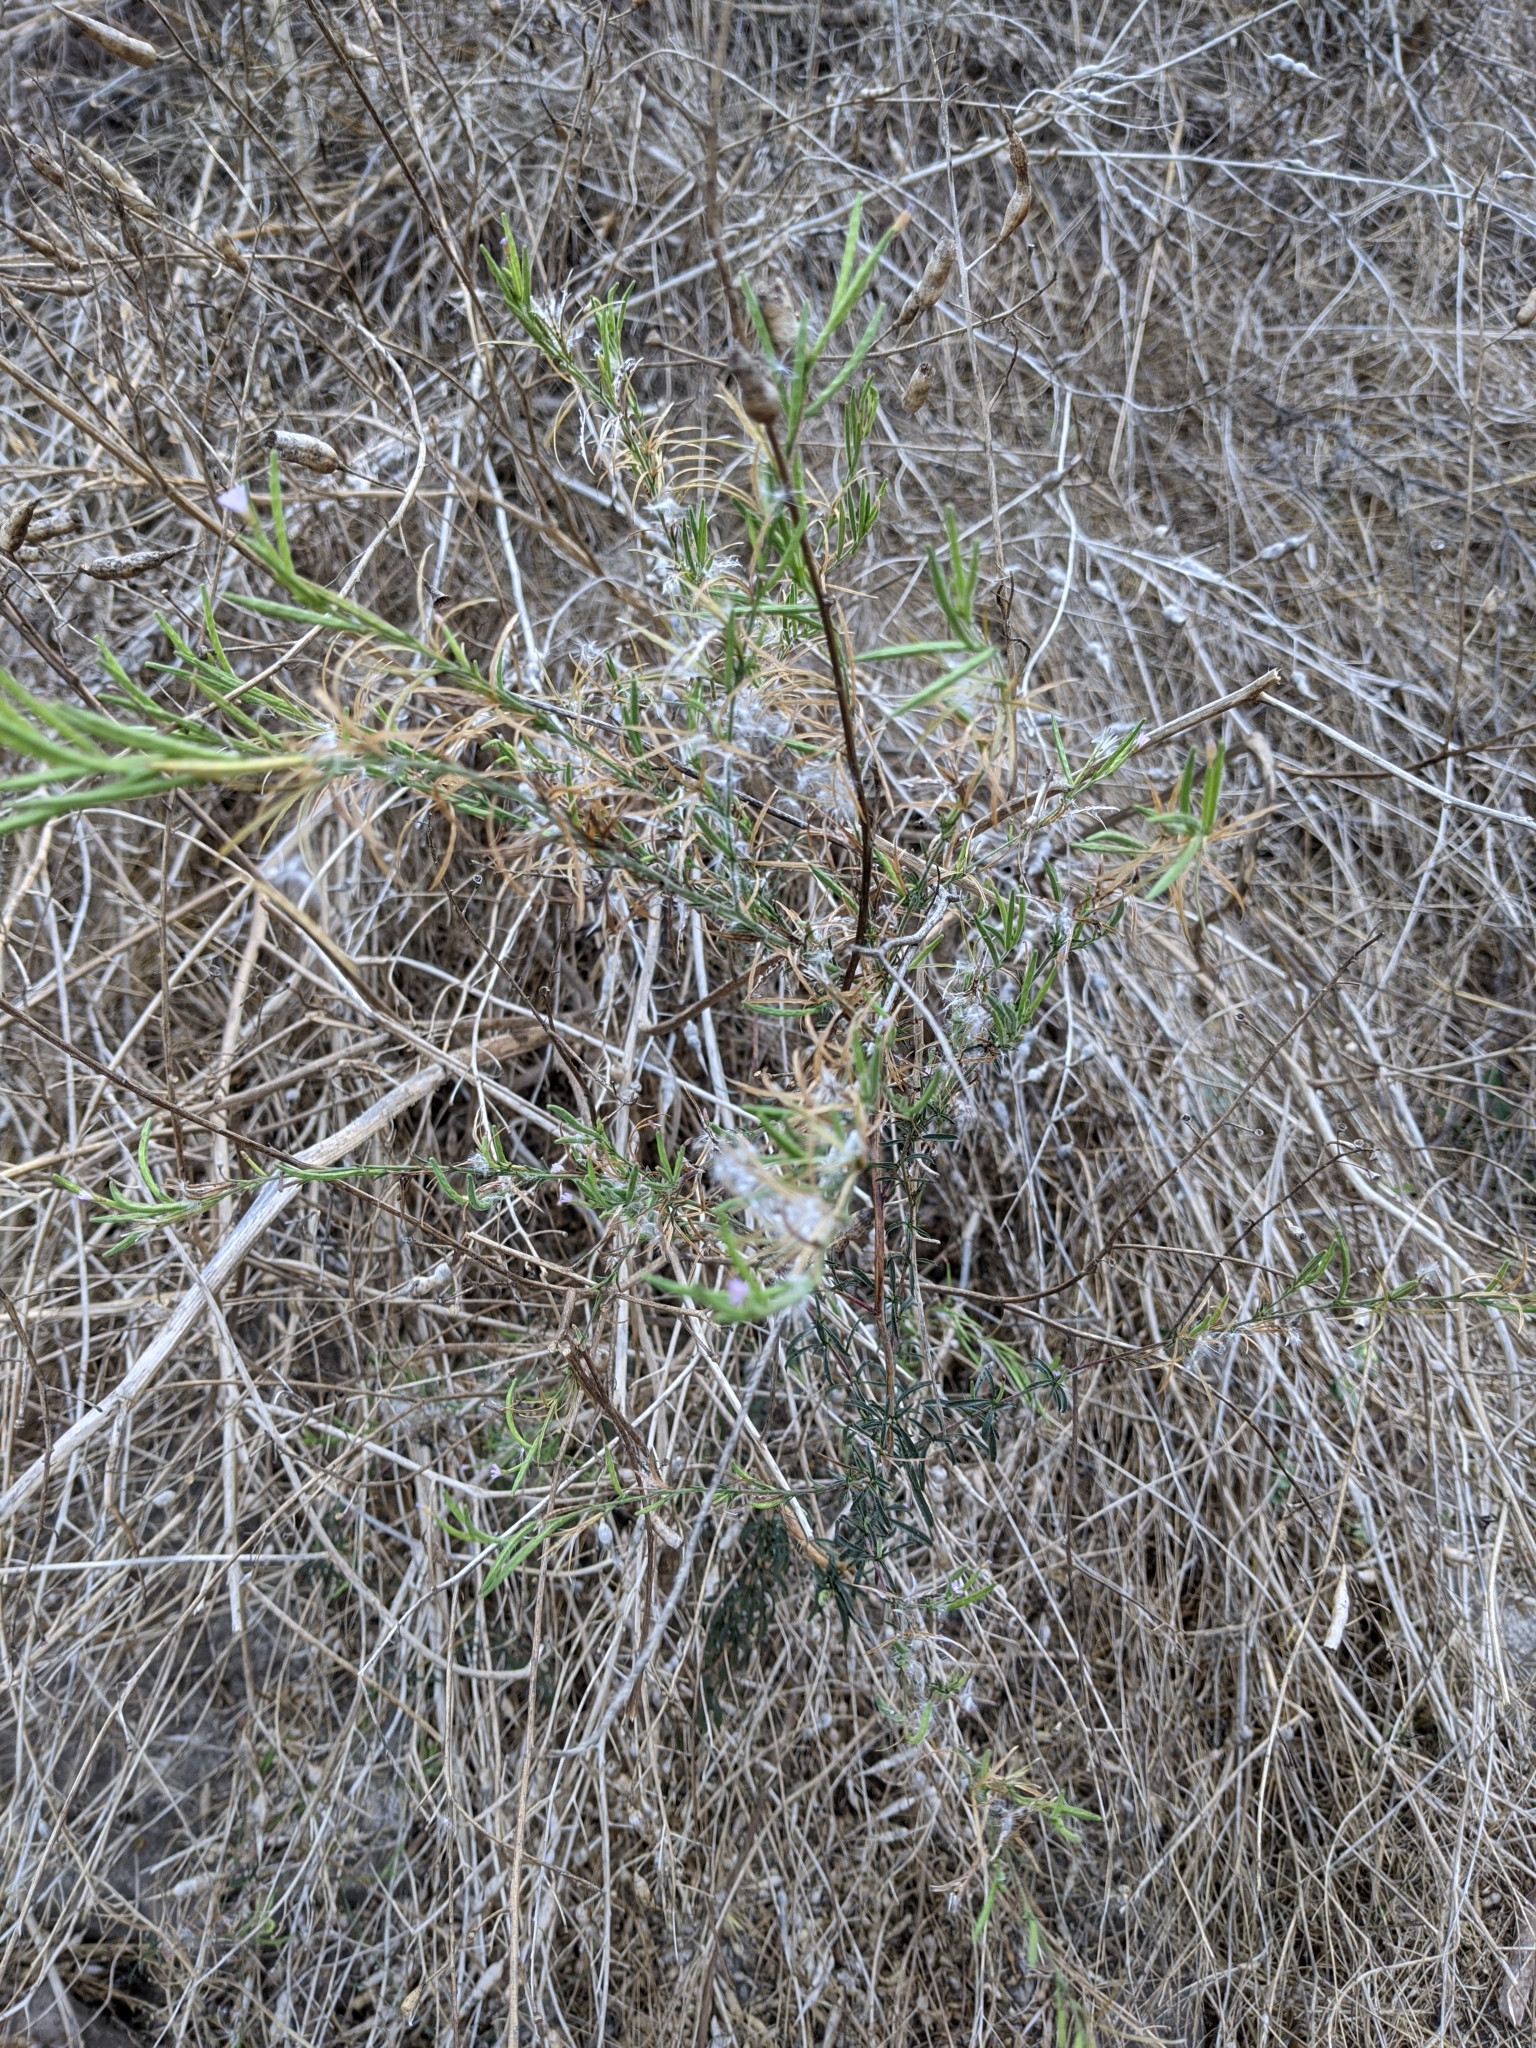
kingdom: Plantae
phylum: Tracheophyta
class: Magnoliopsida
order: Myrtales
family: Onagraceae
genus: Epilobium
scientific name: Epilobium brachycarpum
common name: Annual willowherb
